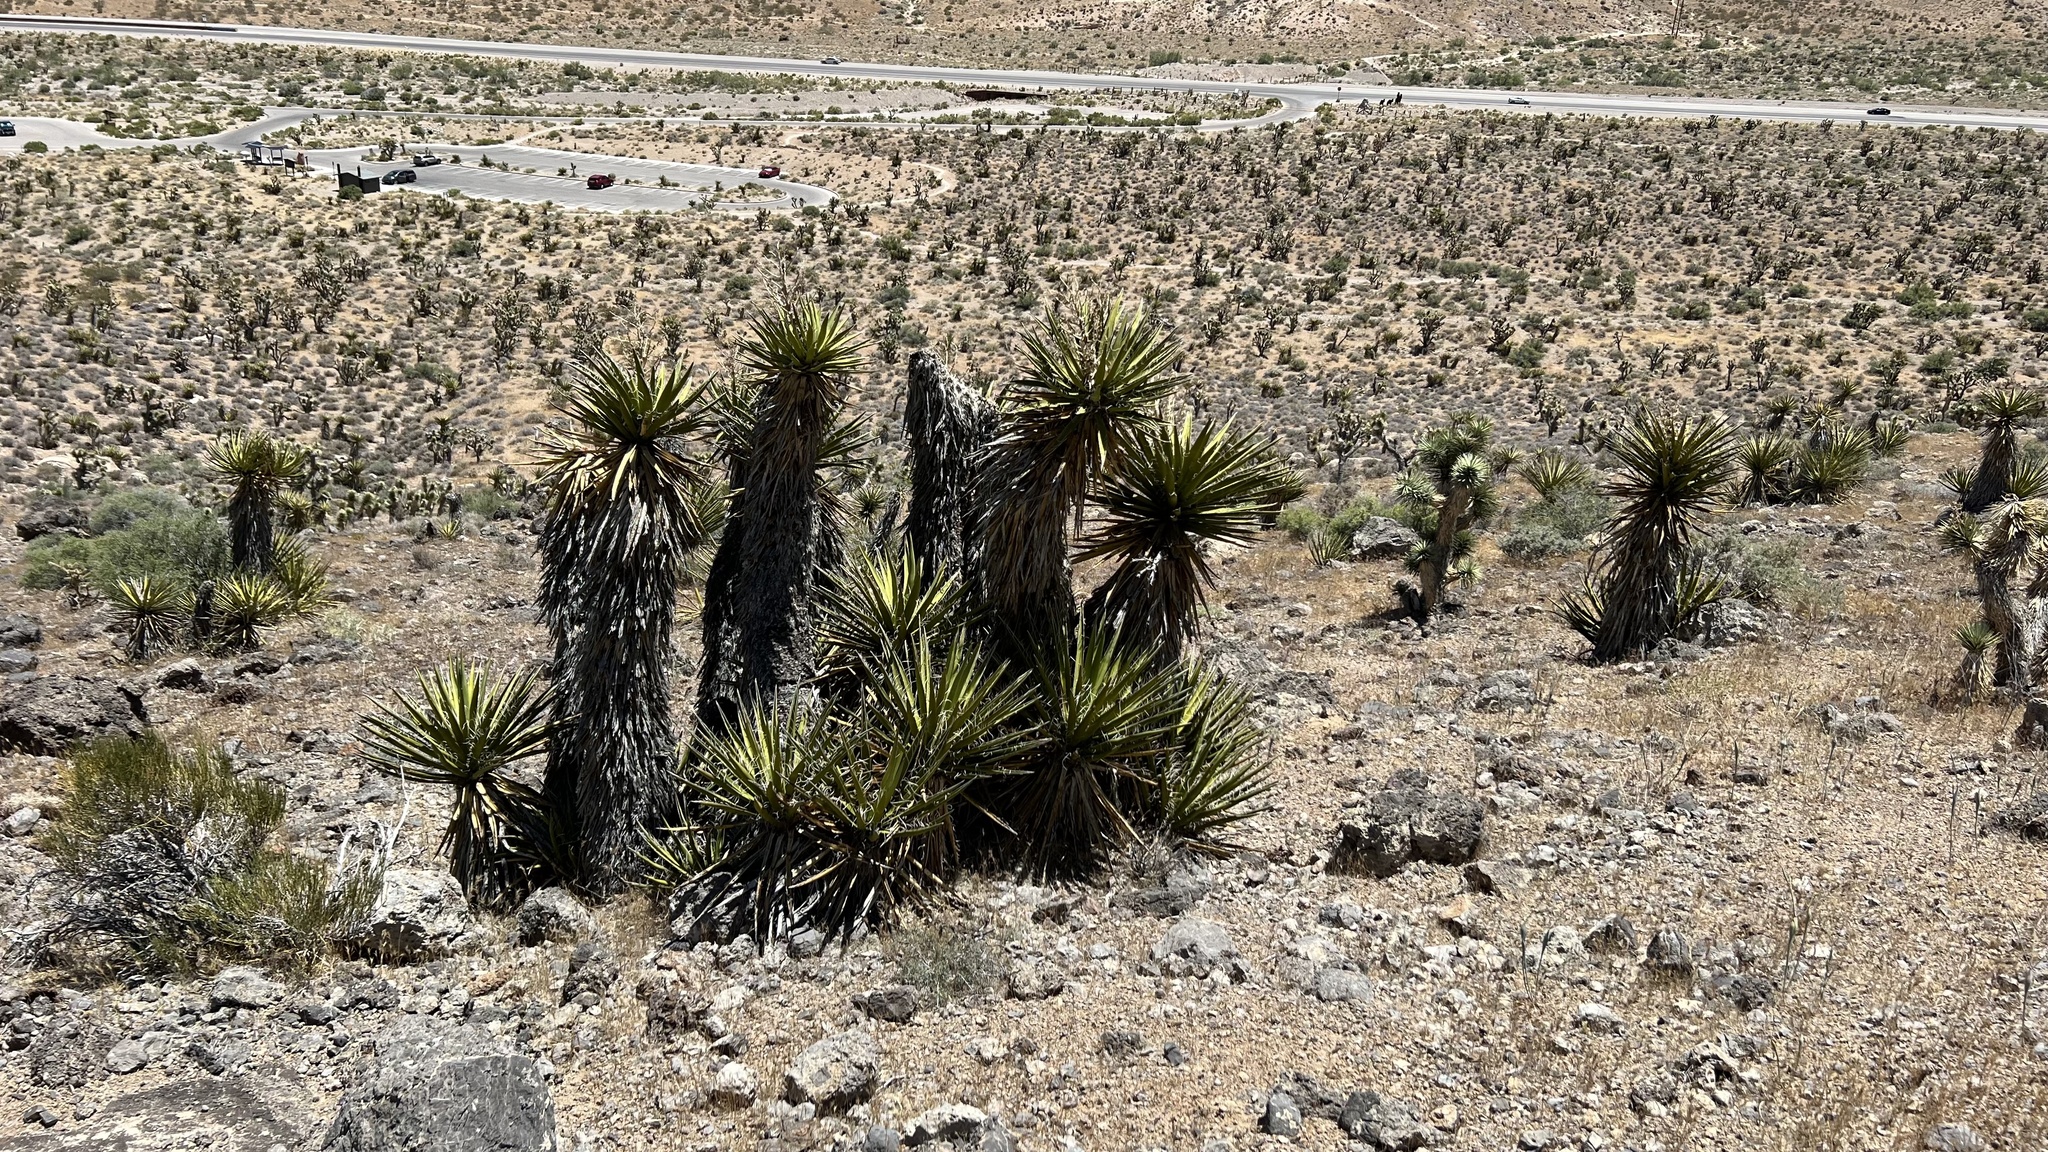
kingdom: Plantae
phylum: Tracheophyta
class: Liliopsida
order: Asparagales
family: Asparagaceae
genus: Yucca
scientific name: Yucca schidigera
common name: Mojave yucca
